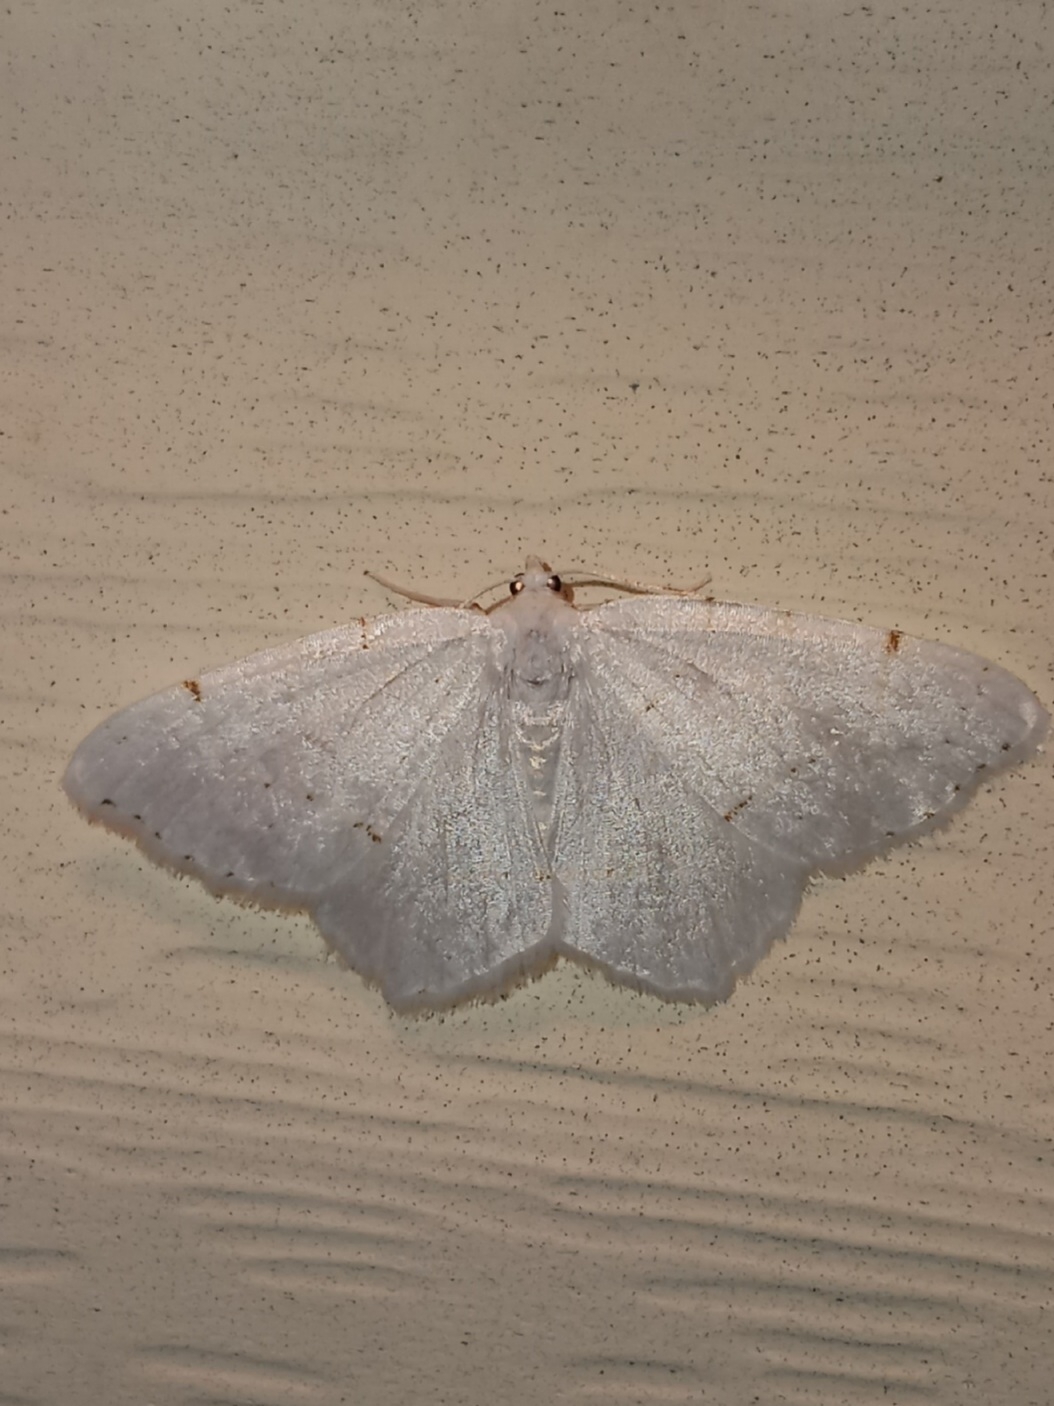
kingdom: Animalia
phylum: Arthropoda
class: Insecta
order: Lepidoptera
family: Geometridae
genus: Macaria
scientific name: Macaria pustularia
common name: Lesser maple spanworm moth
